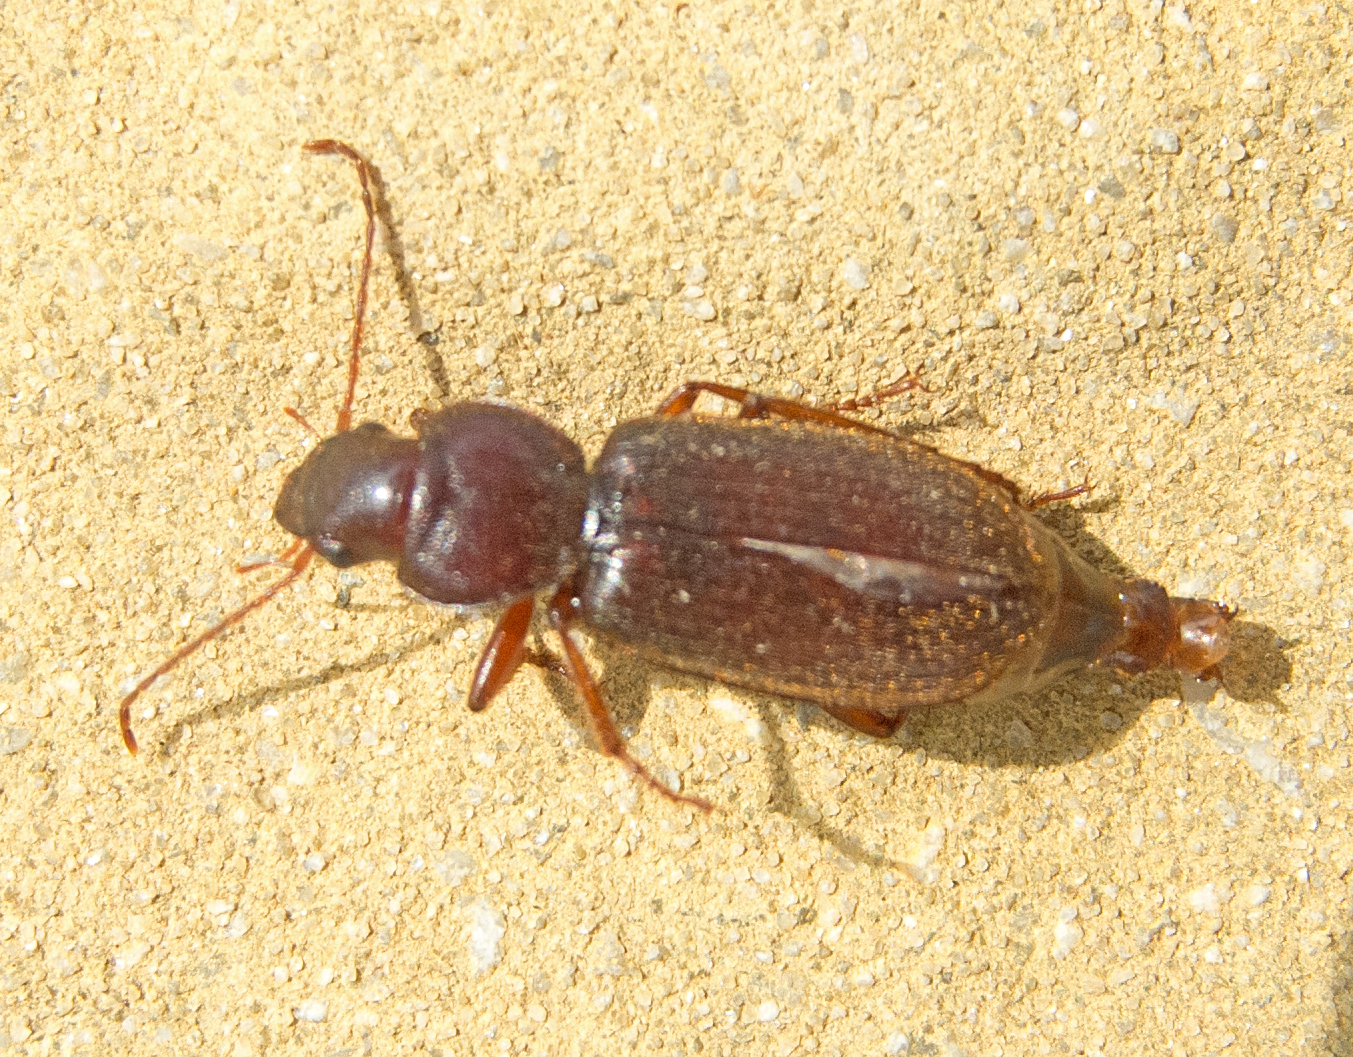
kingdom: Animalia
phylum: Arthropoda
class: Insecta
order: Coleoptera
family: Carabidae
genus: Scybalicus
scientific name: Scybalicus oblongiusculus
